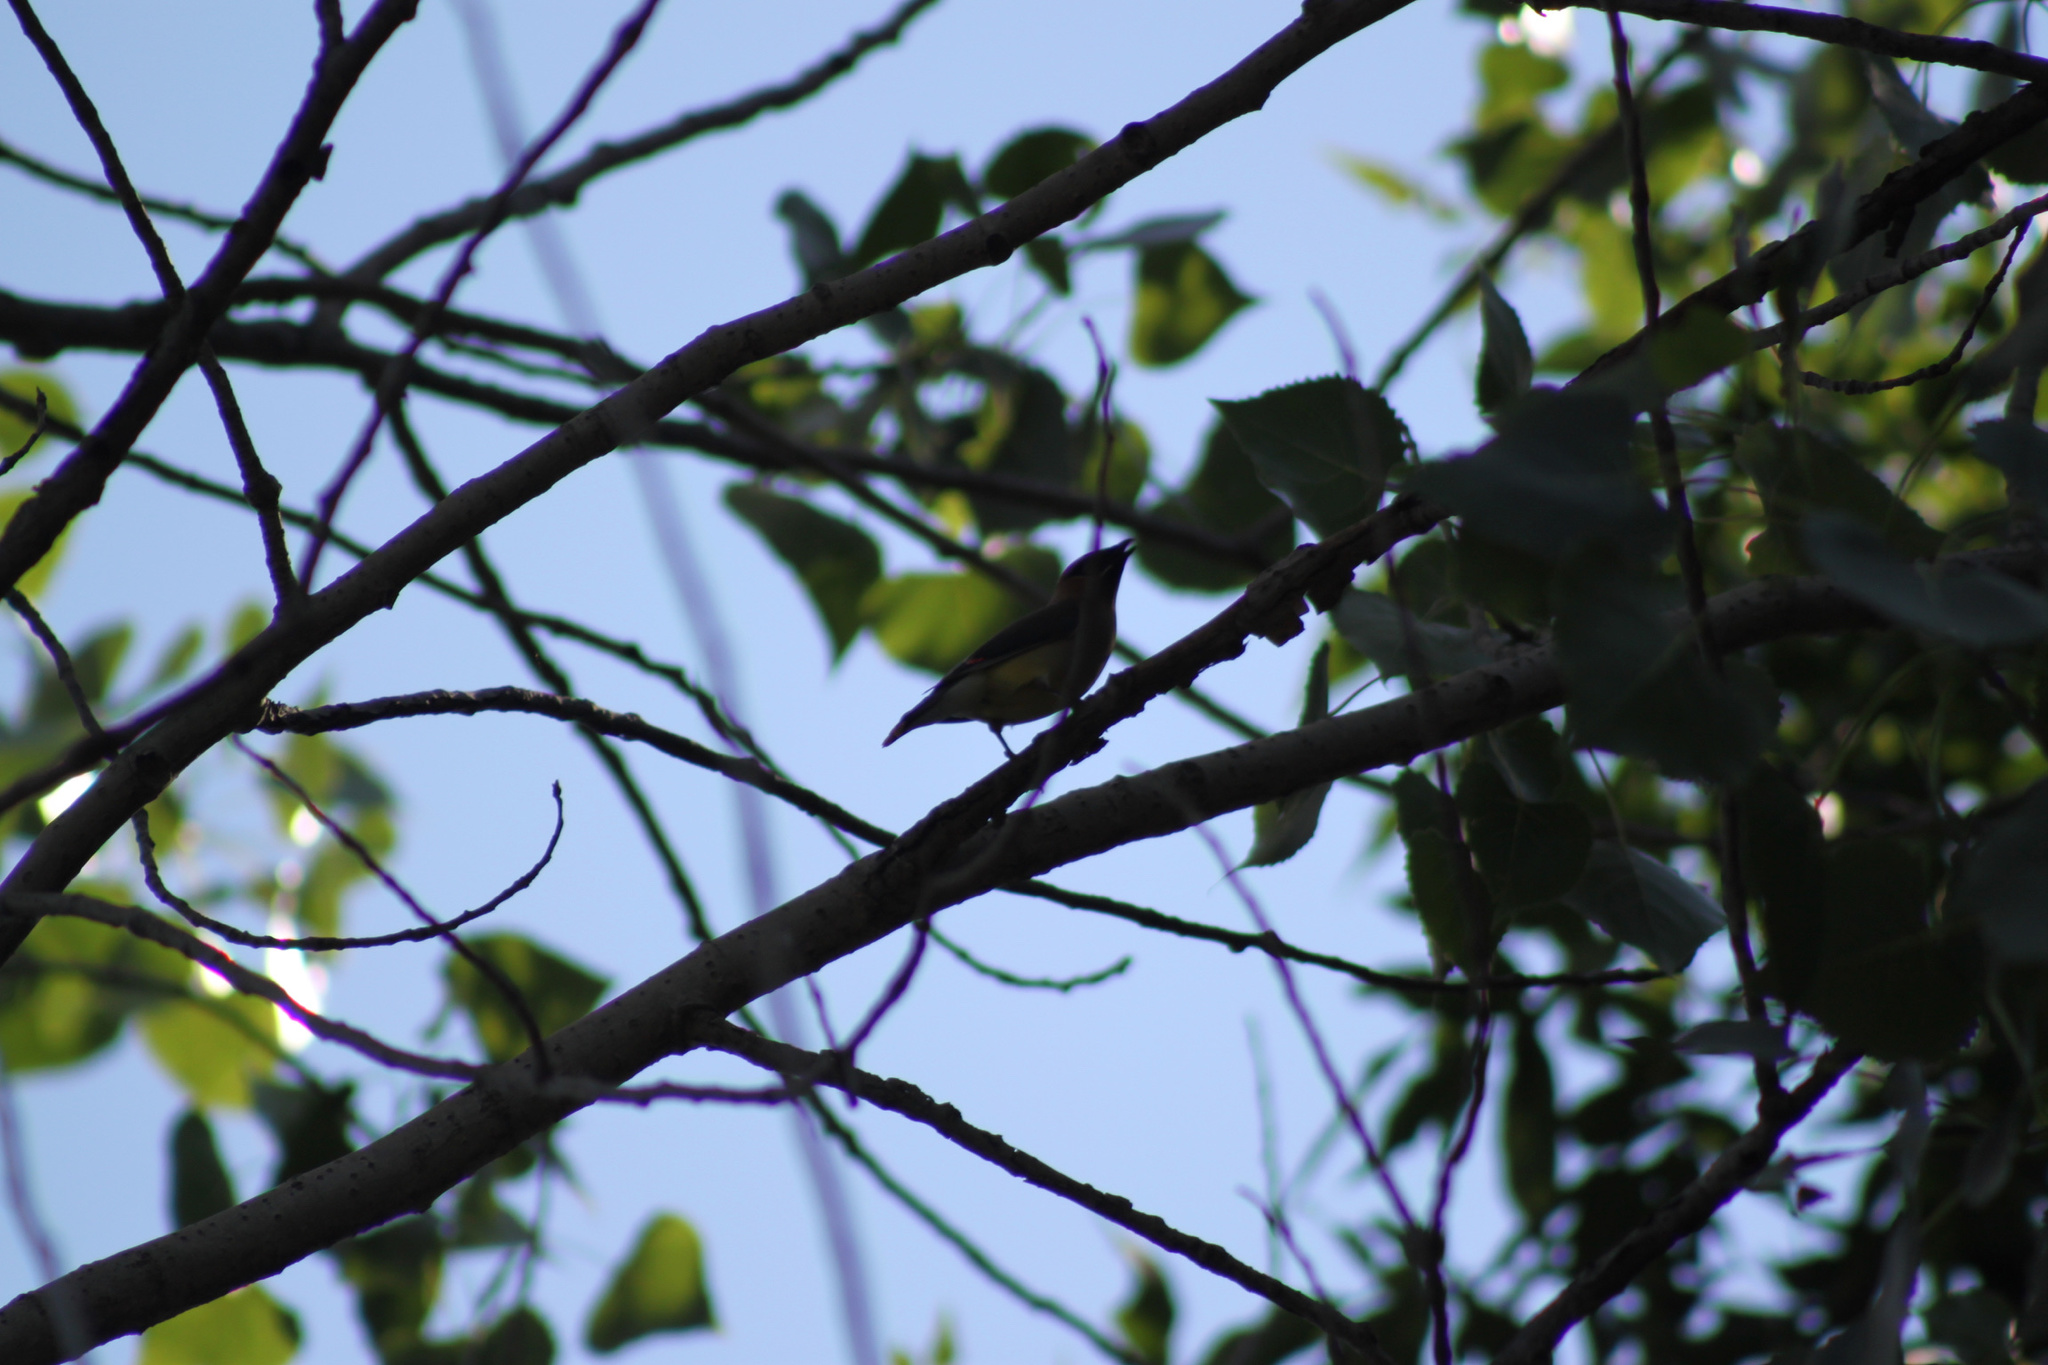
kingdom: Animalia
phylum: Chordata
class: Aves
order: Passeriformes
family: Bombycillidae
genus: Bombycilla
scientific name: Bombycilla cedrorum
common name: Cedar waxwing
